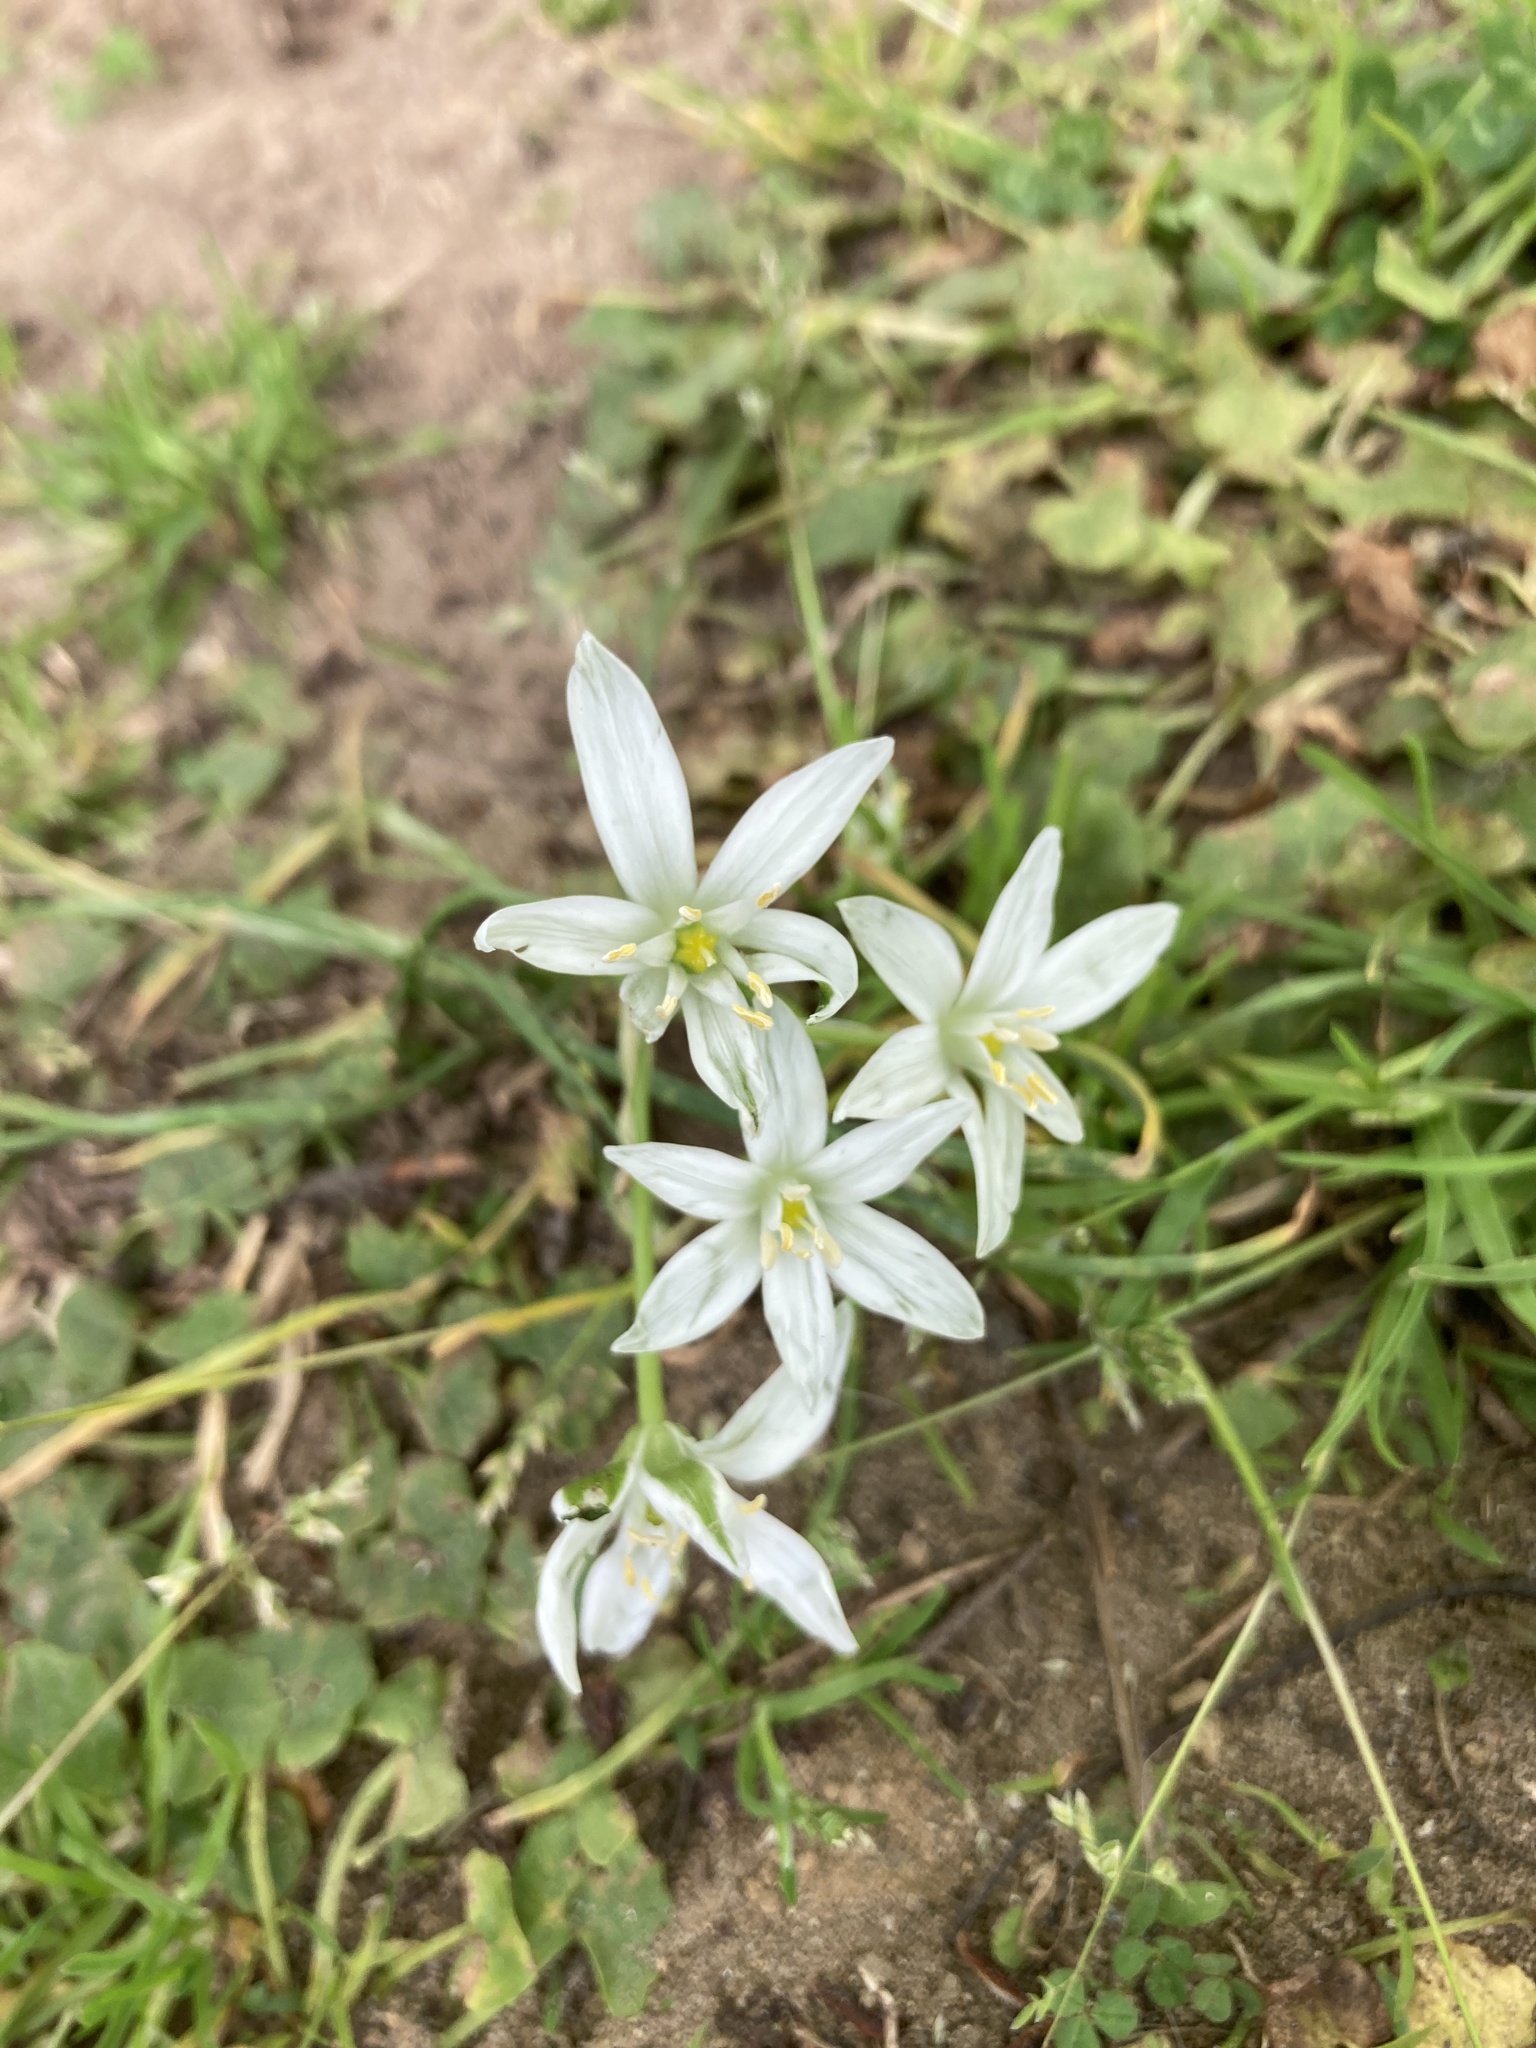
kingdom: Plantae
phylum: Tracheophyta
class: Liliopsida
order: Asparagales
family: Asparagaceae
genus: Ornithogalum
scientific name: Ornithogalum umbellatum
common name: Garden star-of-bethlehem
